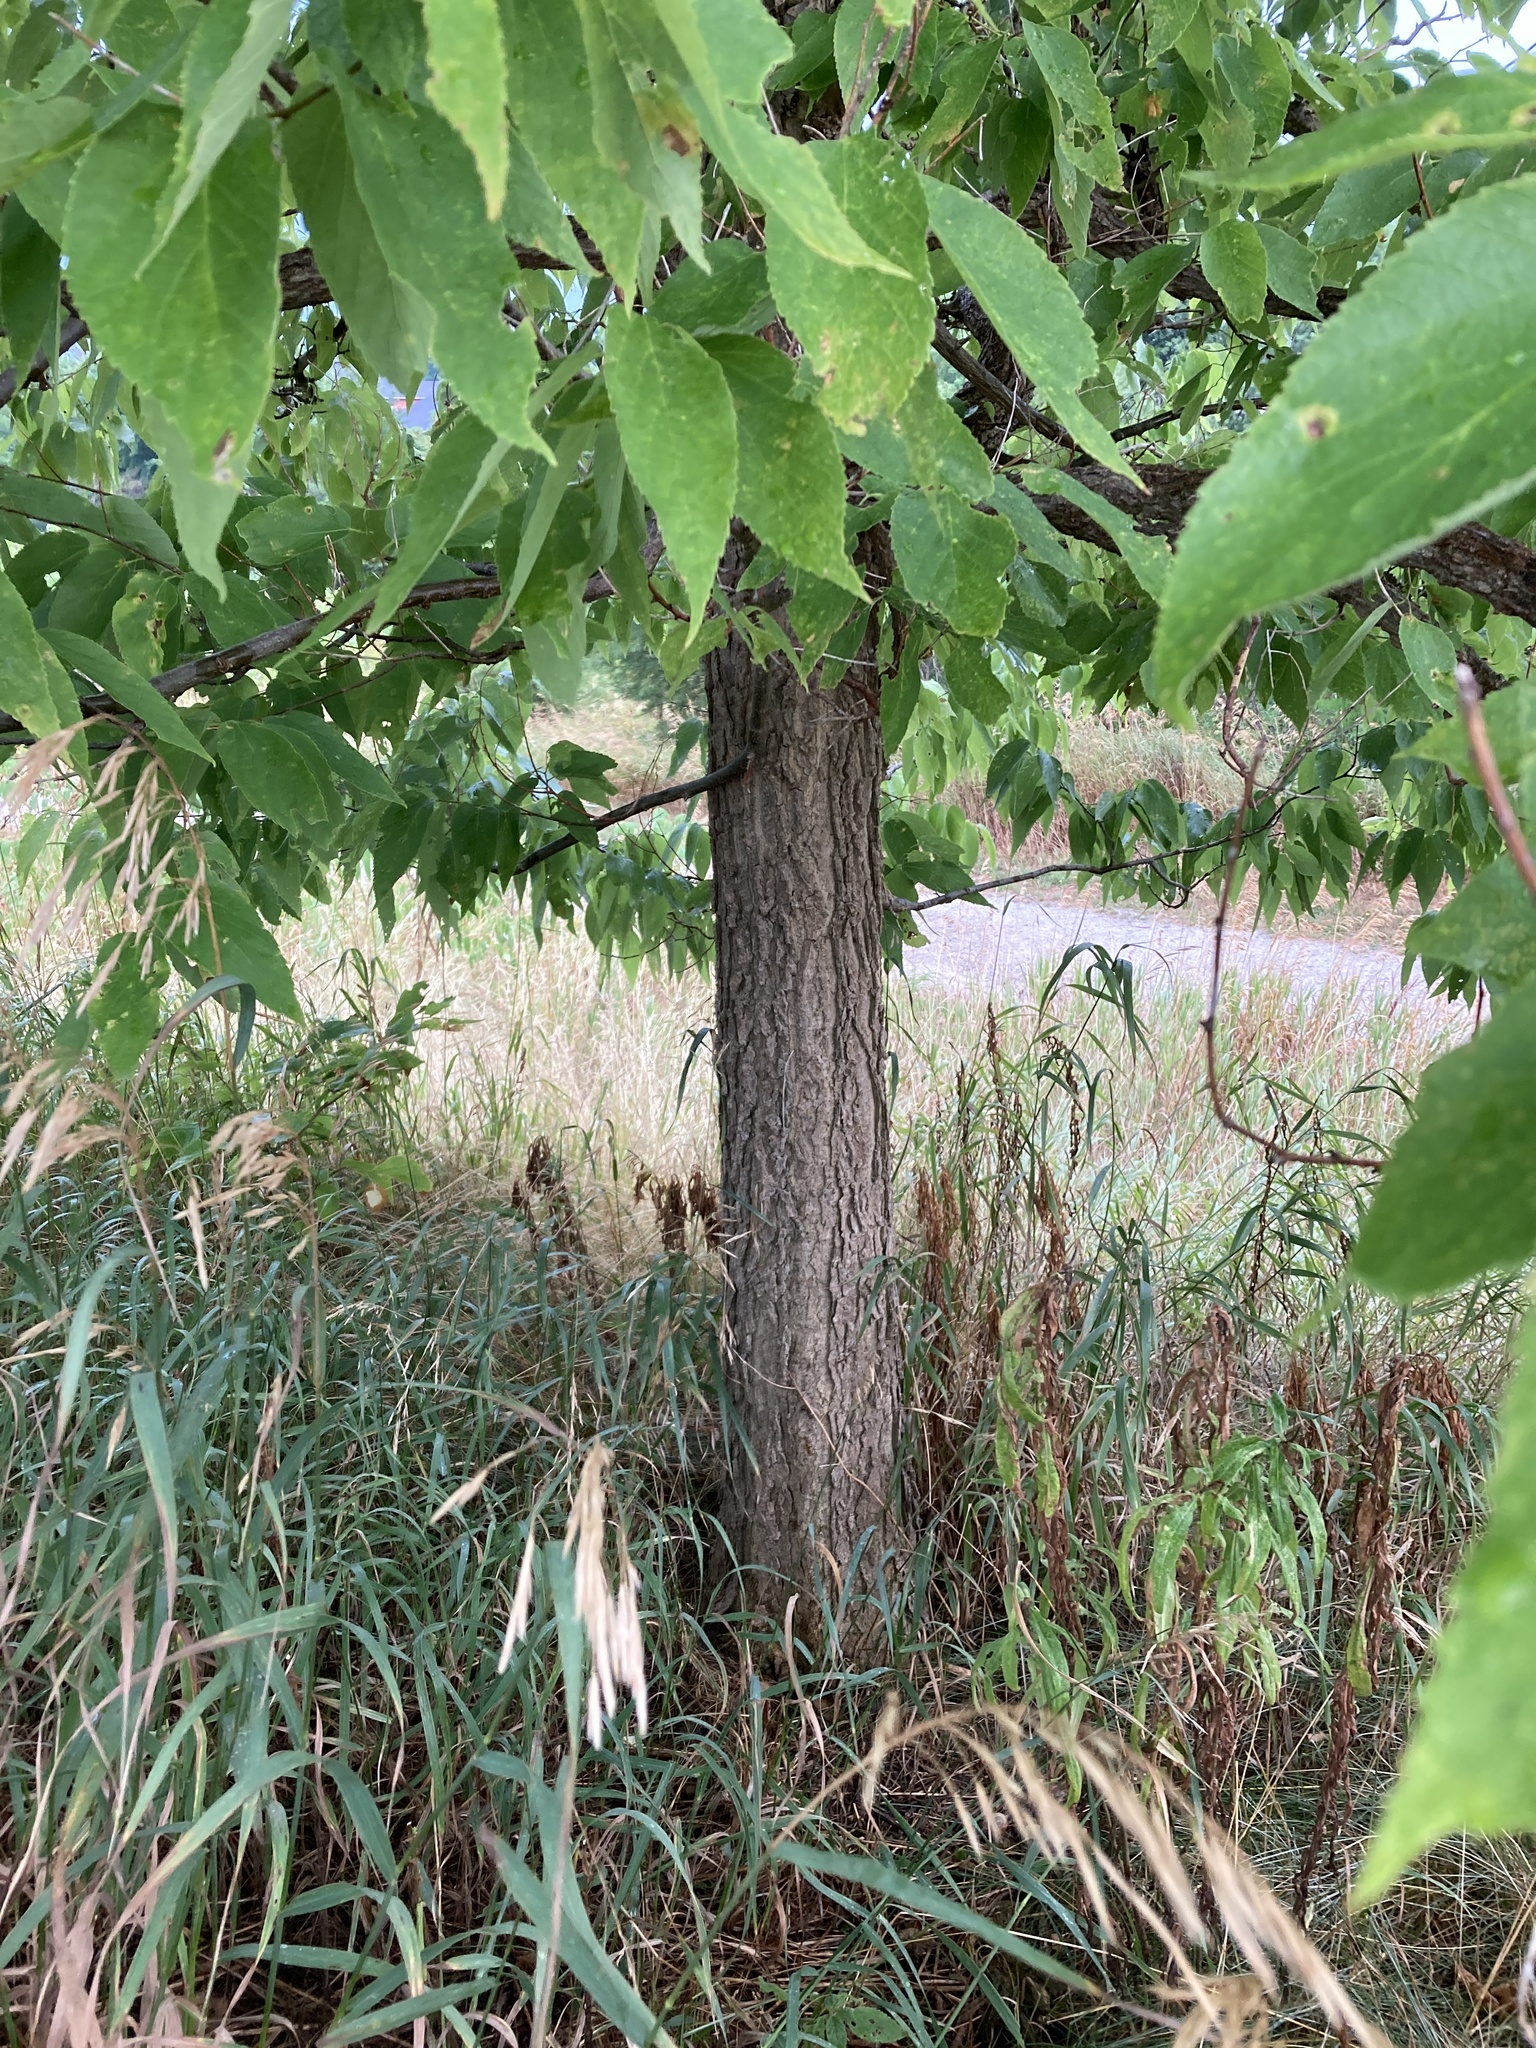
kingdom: Plantae
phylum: Tracheophyta
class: Magnoliopsida
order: Rosales
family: Cannabaceae
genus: Celtis
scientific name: Celtis occidentalis
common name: Common hackberry
